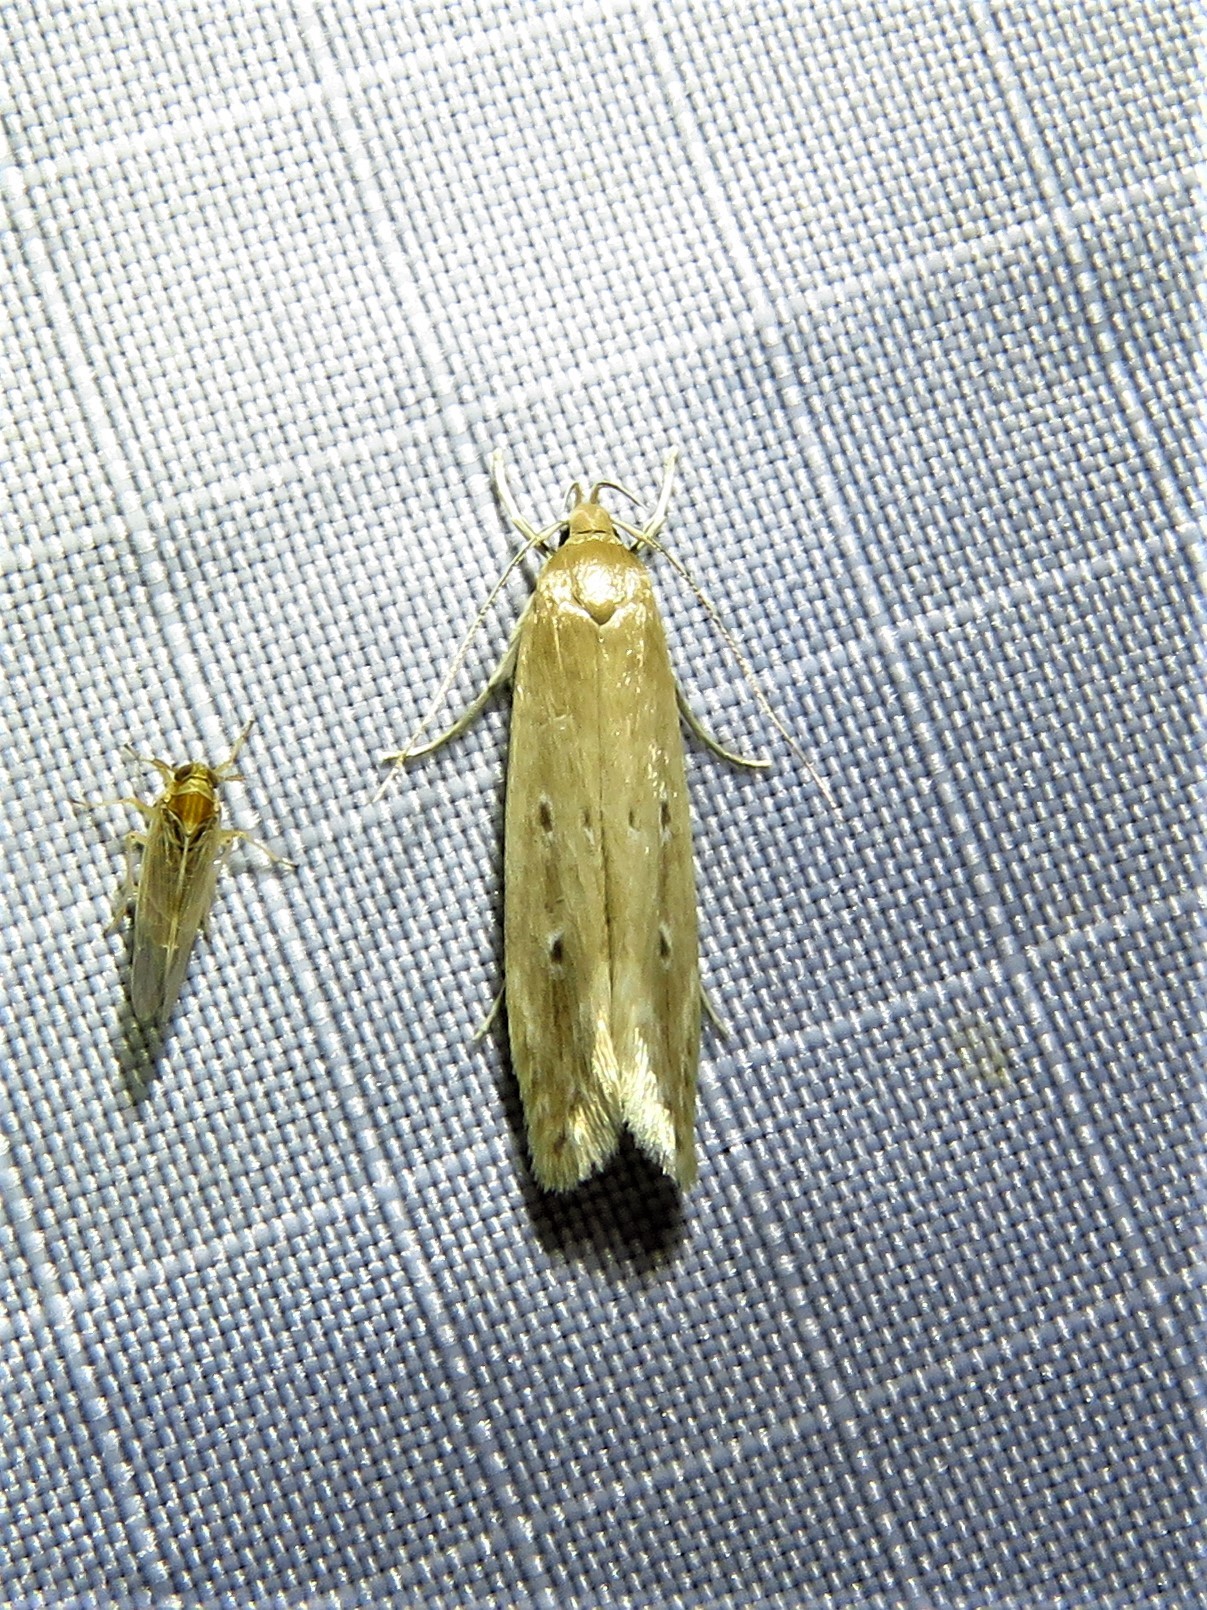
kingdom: Animalia
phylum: Arthropoda
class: Insecta
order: Lepidoptera
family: Cosmopterigidae
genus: Limnaecia
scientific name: Limnaecia phragmitella
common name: Bulrush cosmet
